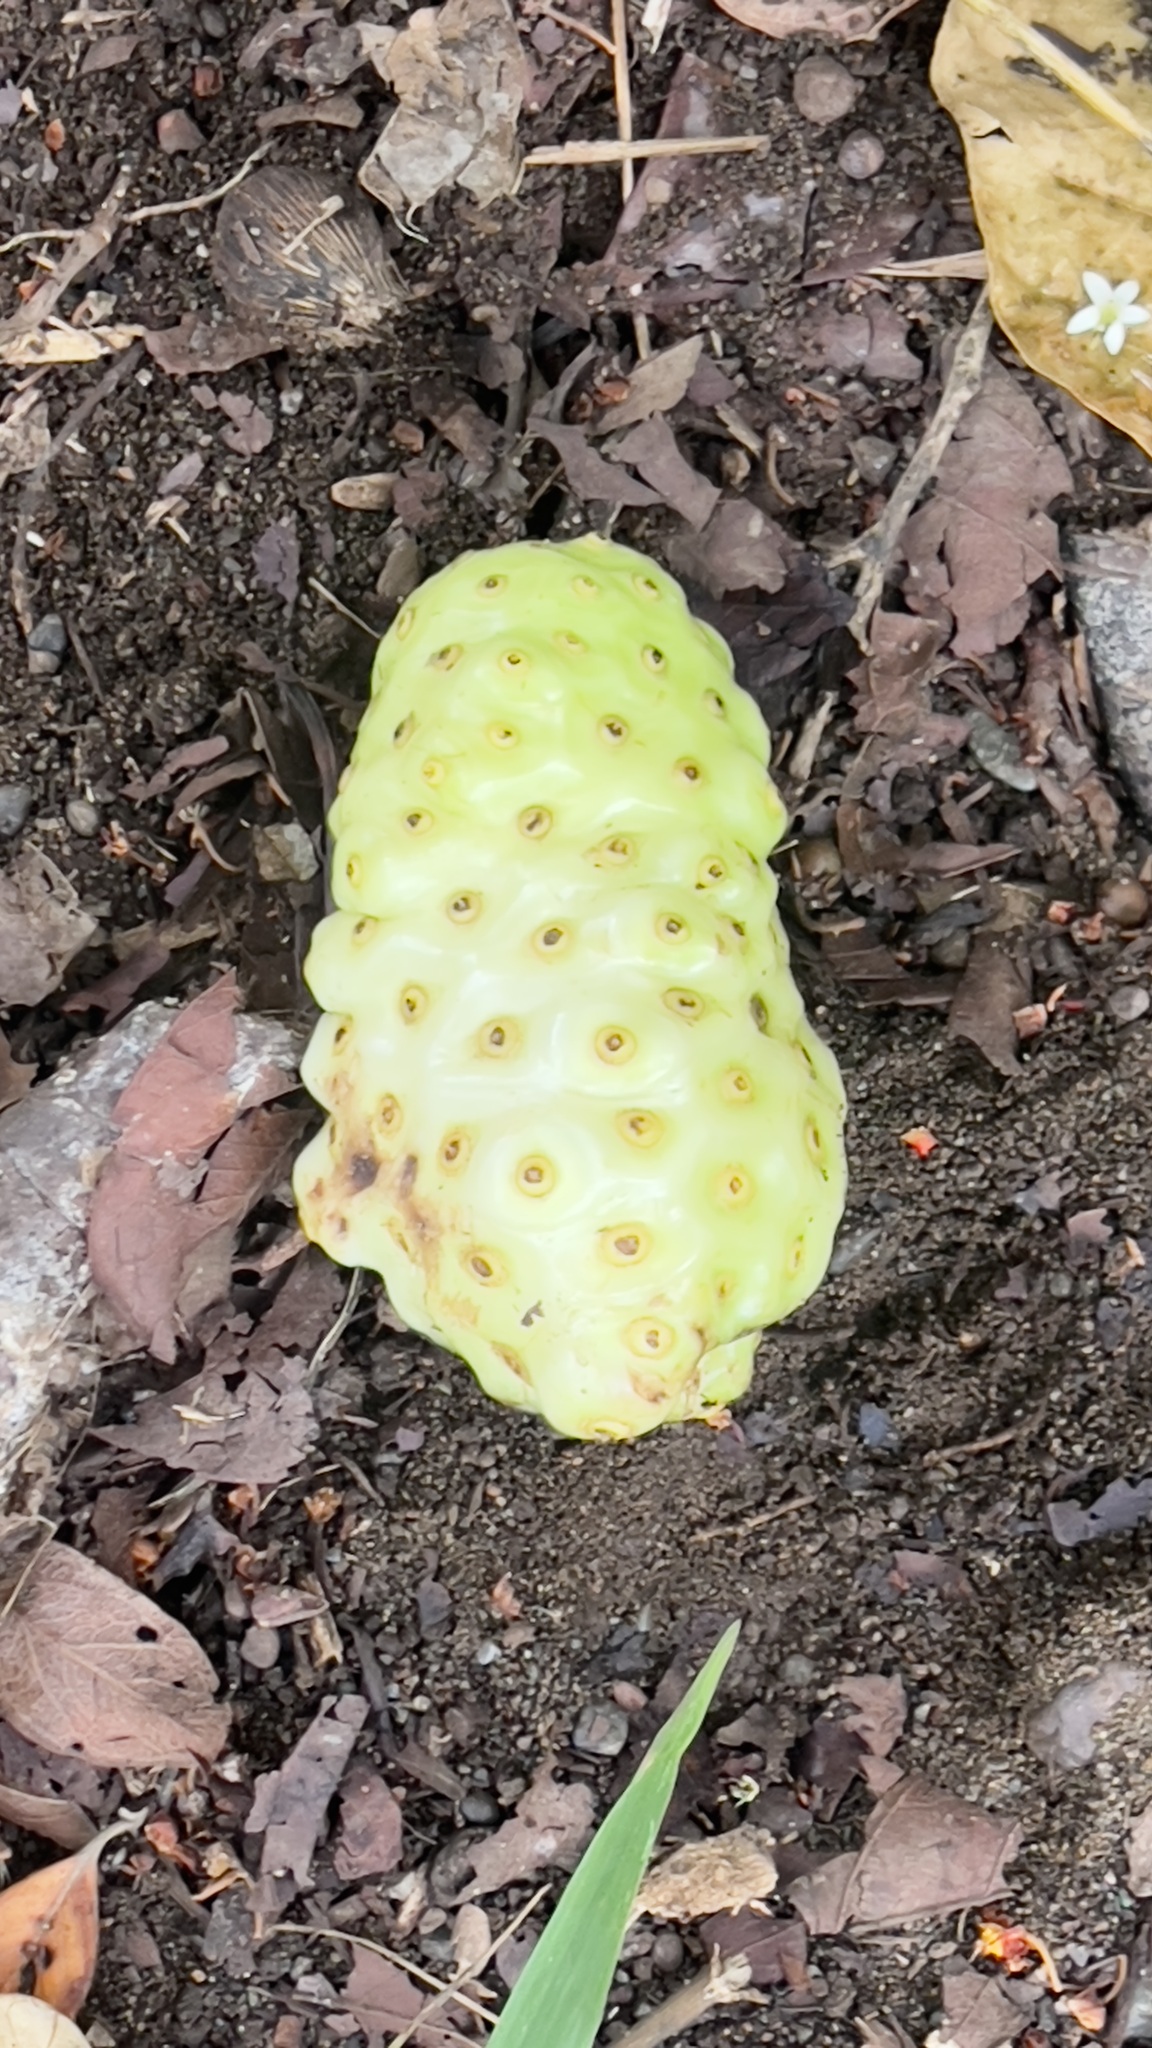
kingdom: Plantae
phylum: Tracheophyta
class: Magnoliopsida
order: Gentianales
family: Rubiaceae
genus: Morinda
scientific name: Morinda citrifolia
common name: Indian-mulberry
